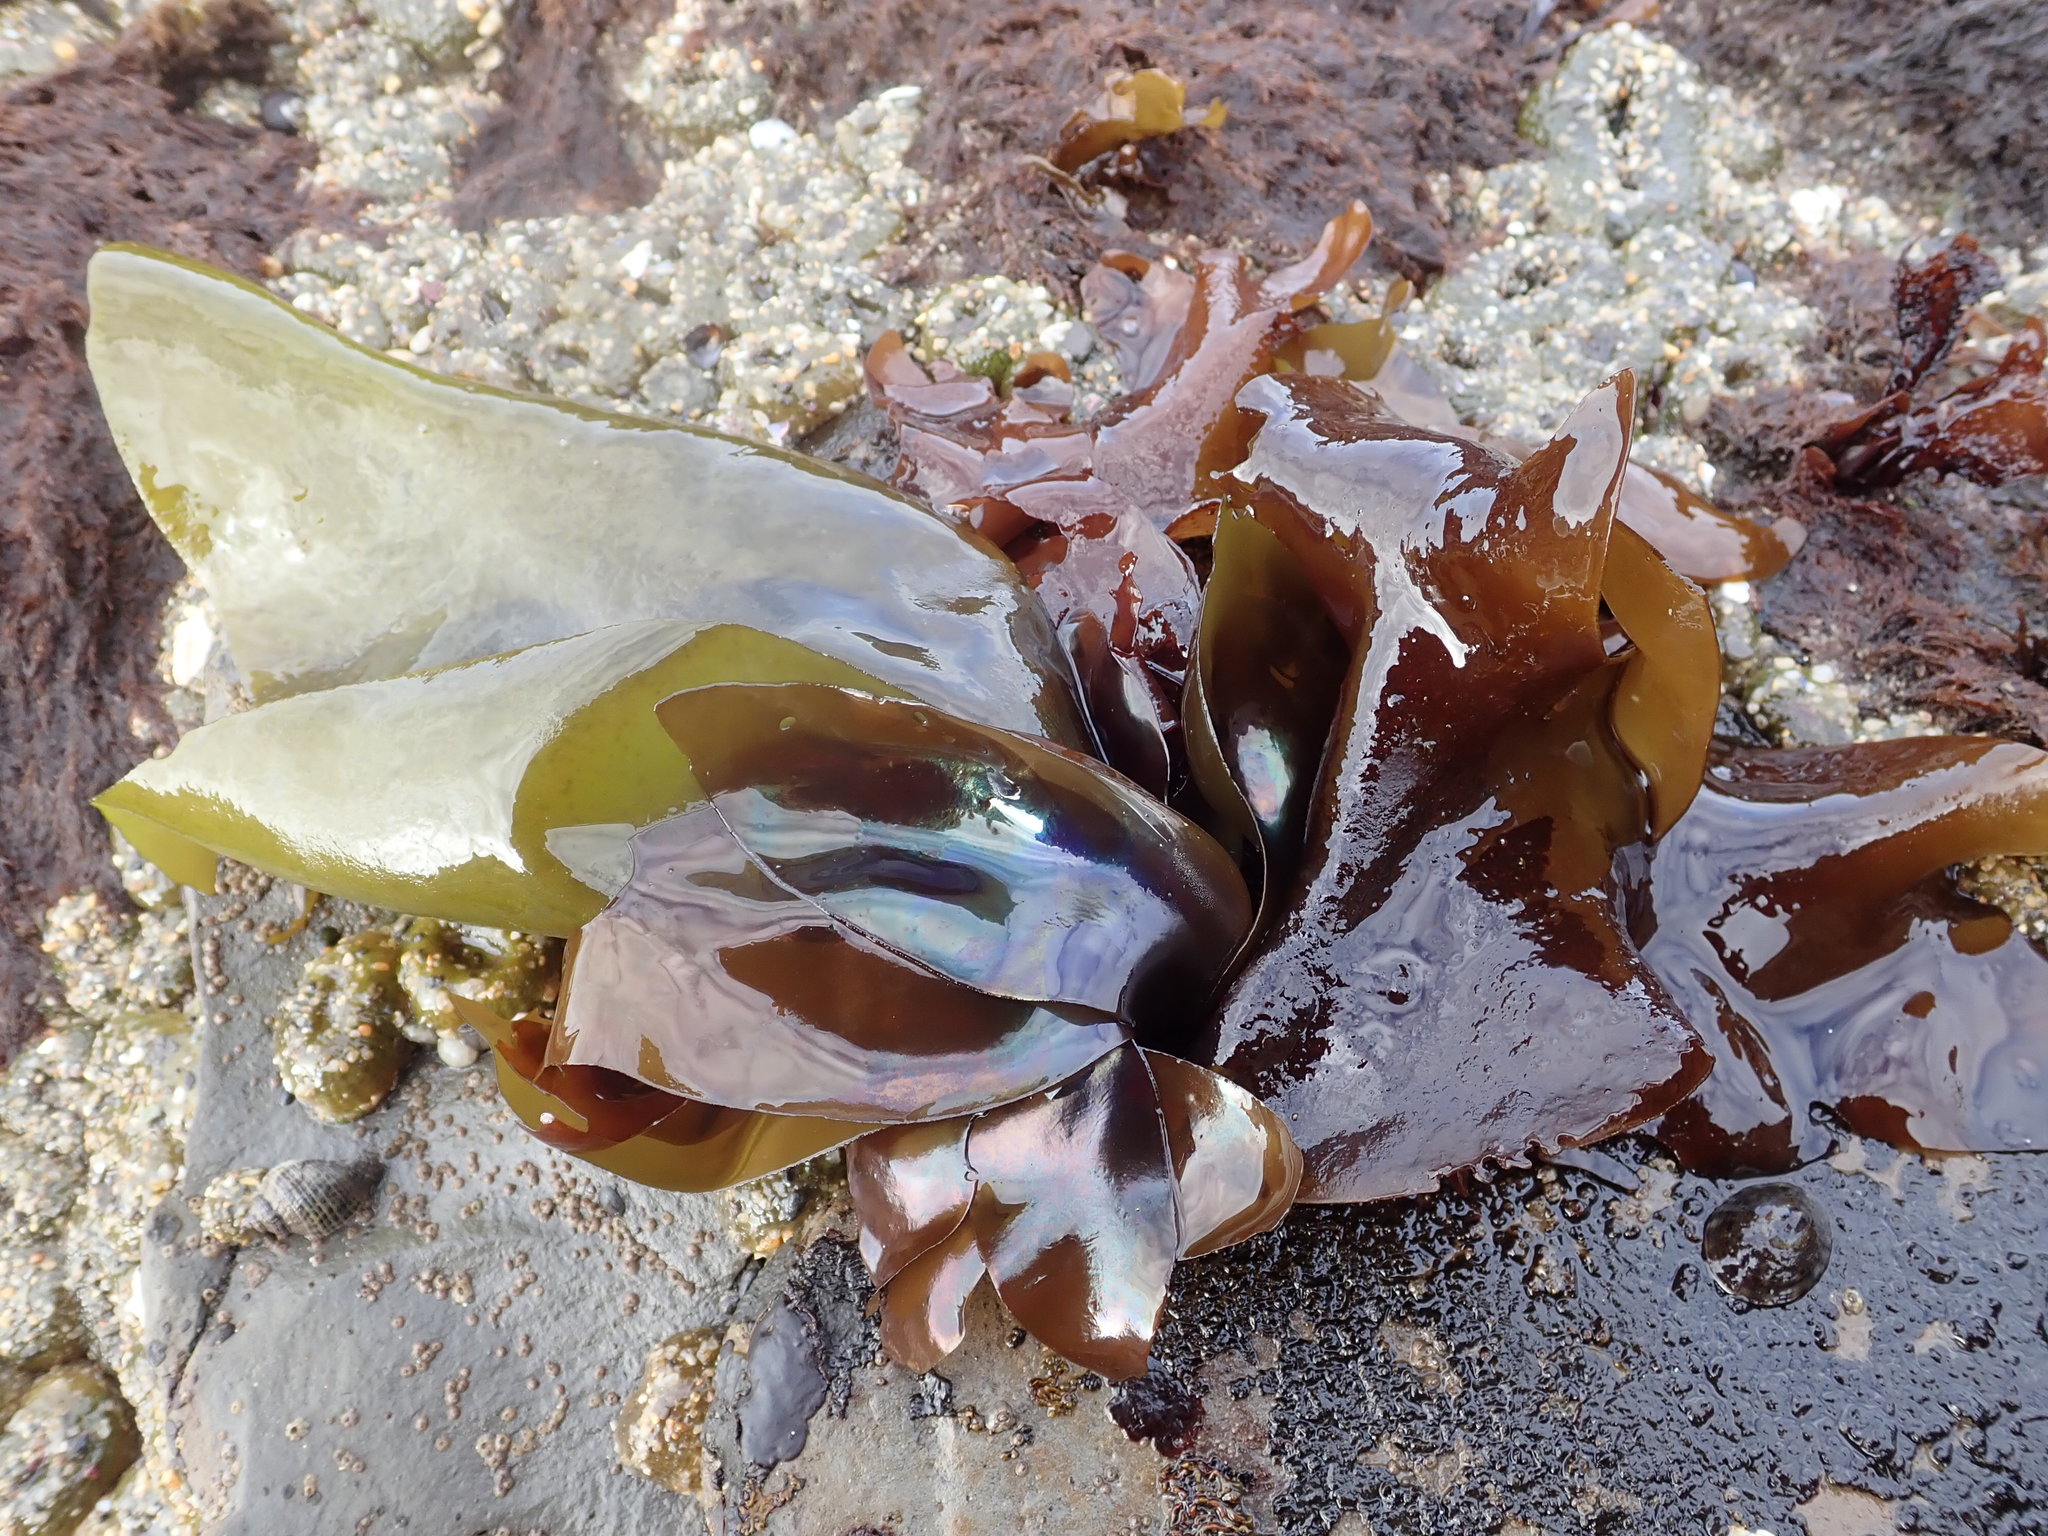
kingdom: Plantae
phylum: Rhodophyta
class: Florideophyceae
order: Gigartinales
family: Gigartinaceae
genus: Mazzaella
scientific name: Mazzaella flaccida
